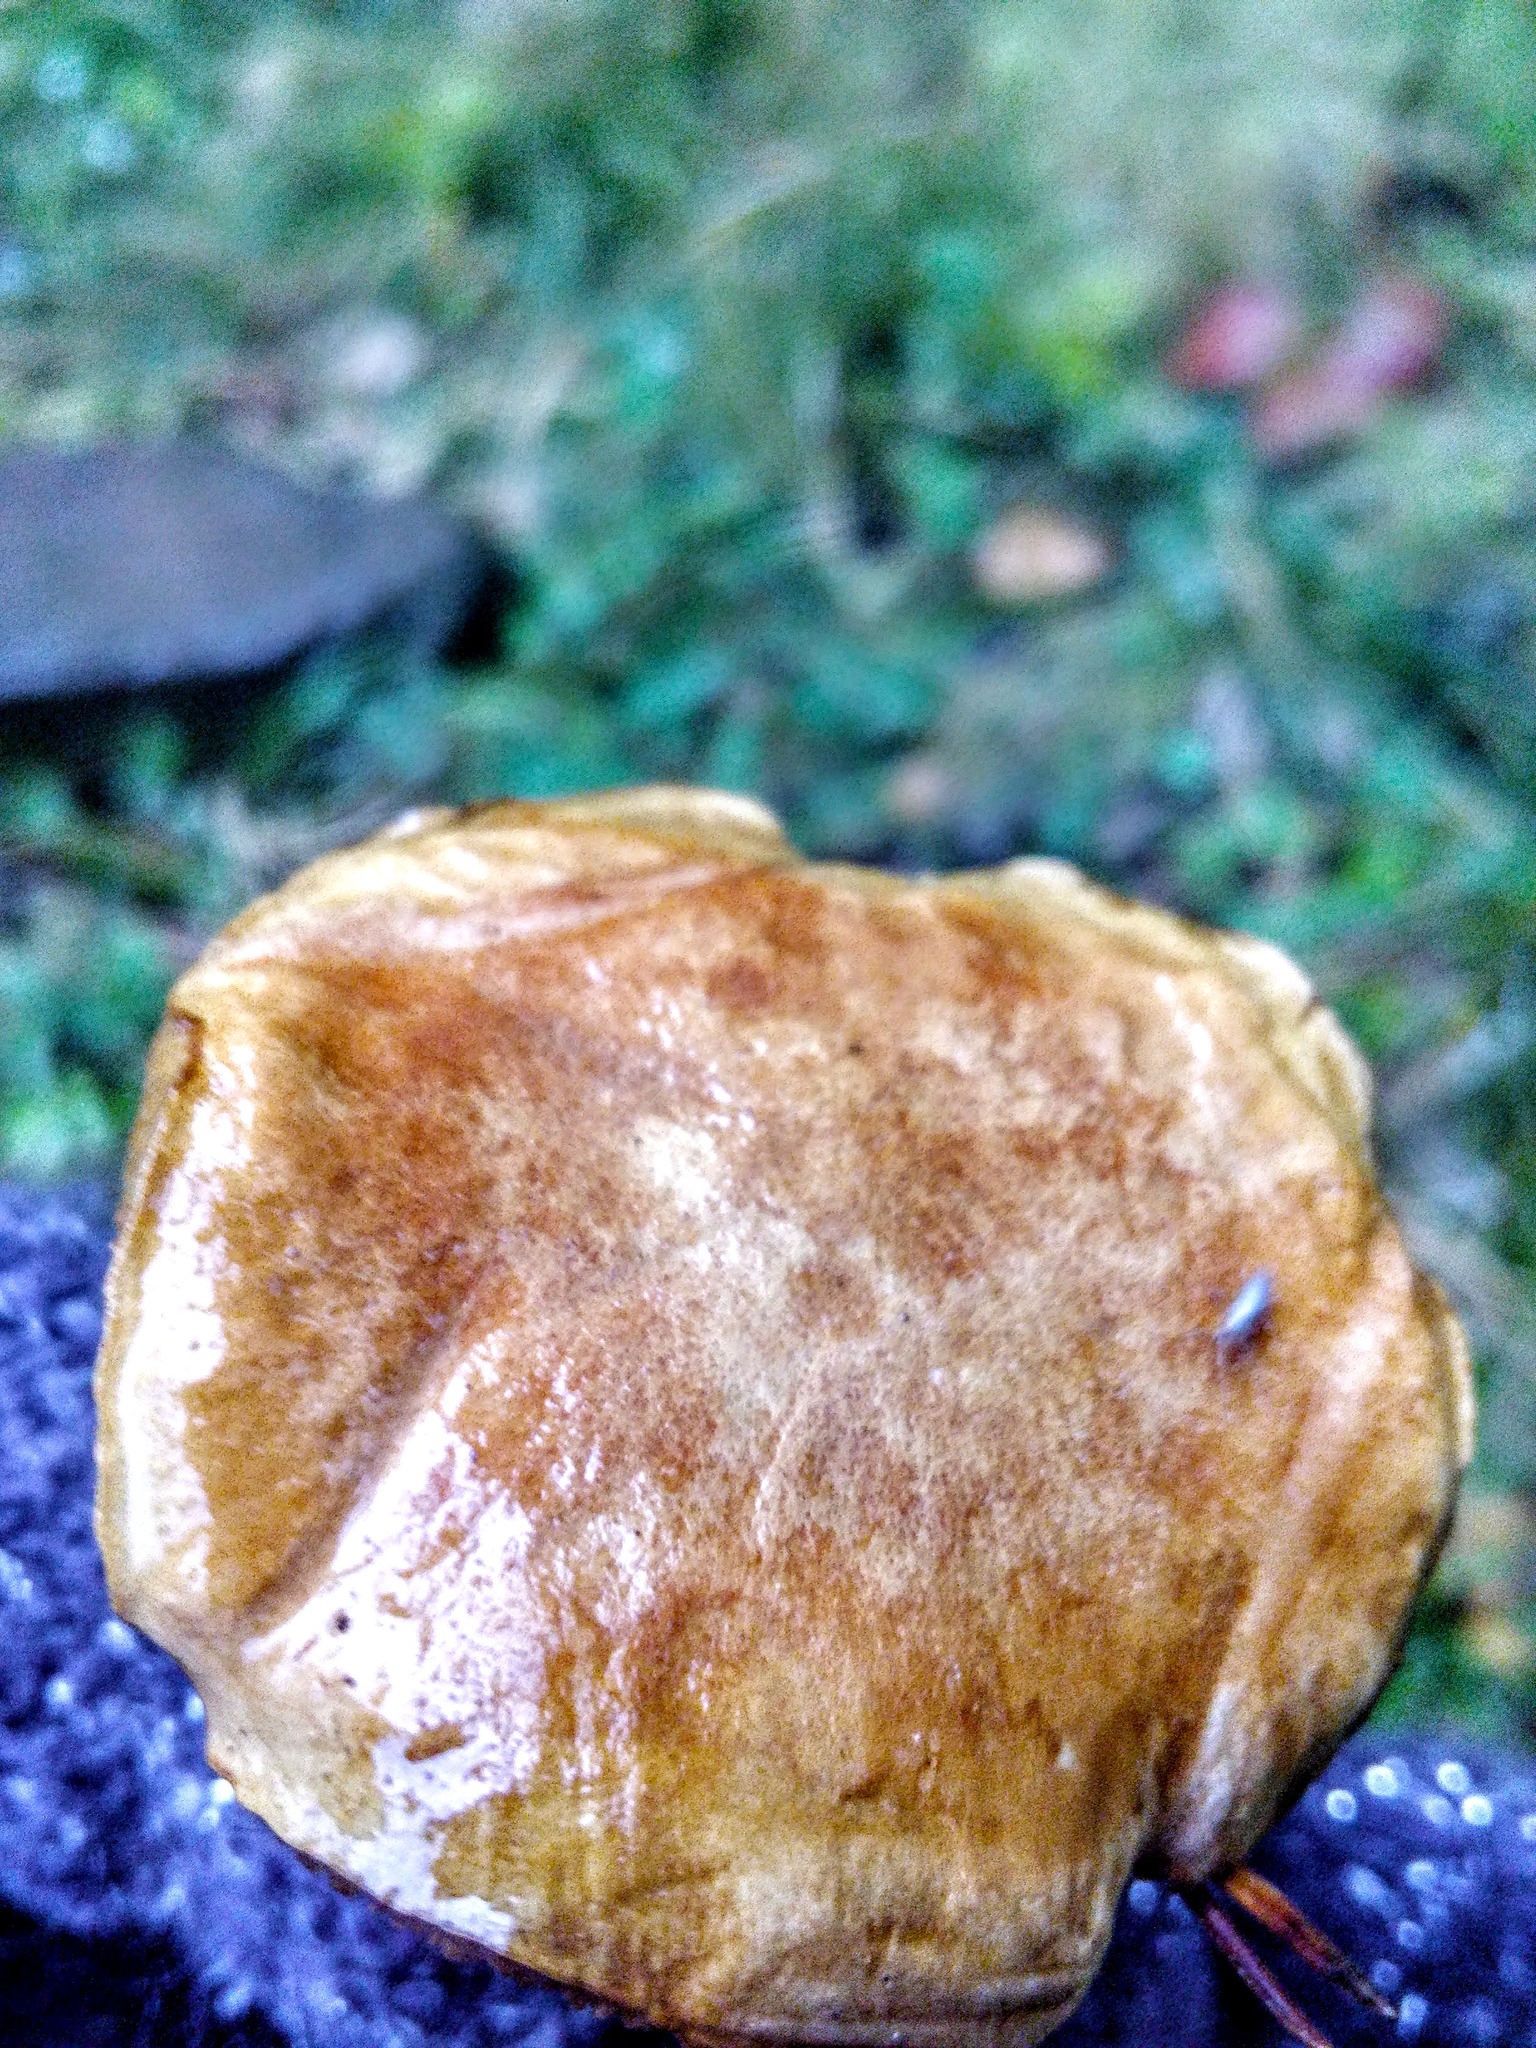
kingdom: Fungi
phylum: Basidiomycota
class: Agaricomycetes
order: Boletales
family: Boletaceae
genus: Chalciporus
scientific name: Chalciporus piperatus
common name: Peppery bolete
